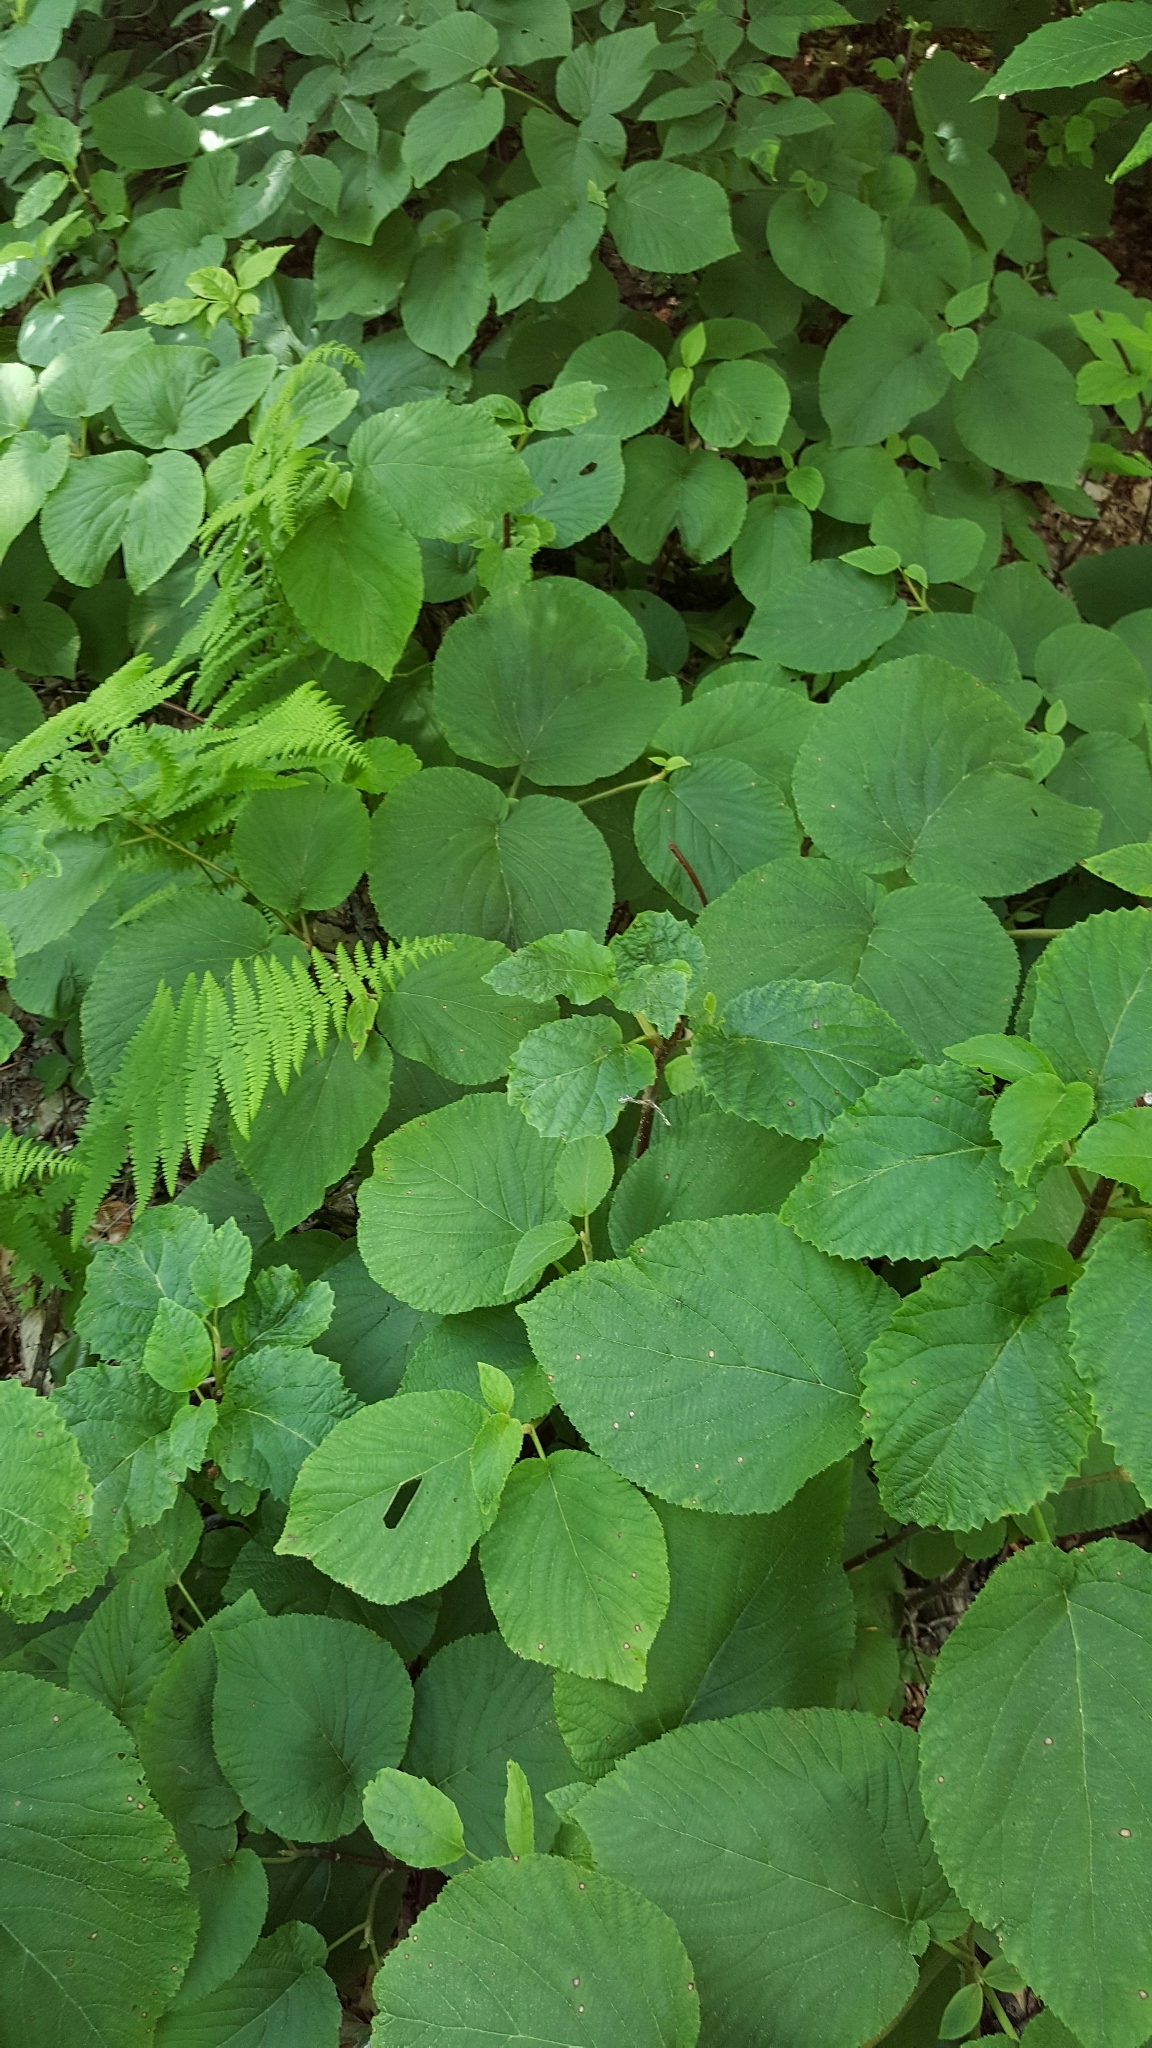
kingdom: Plantae
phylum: Tracheophyta
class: Magnoliopsida
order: Dipsacales
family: Viburnaceae
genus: Viburnum
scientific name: Viburnum lantanoides
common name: Hobblebush
